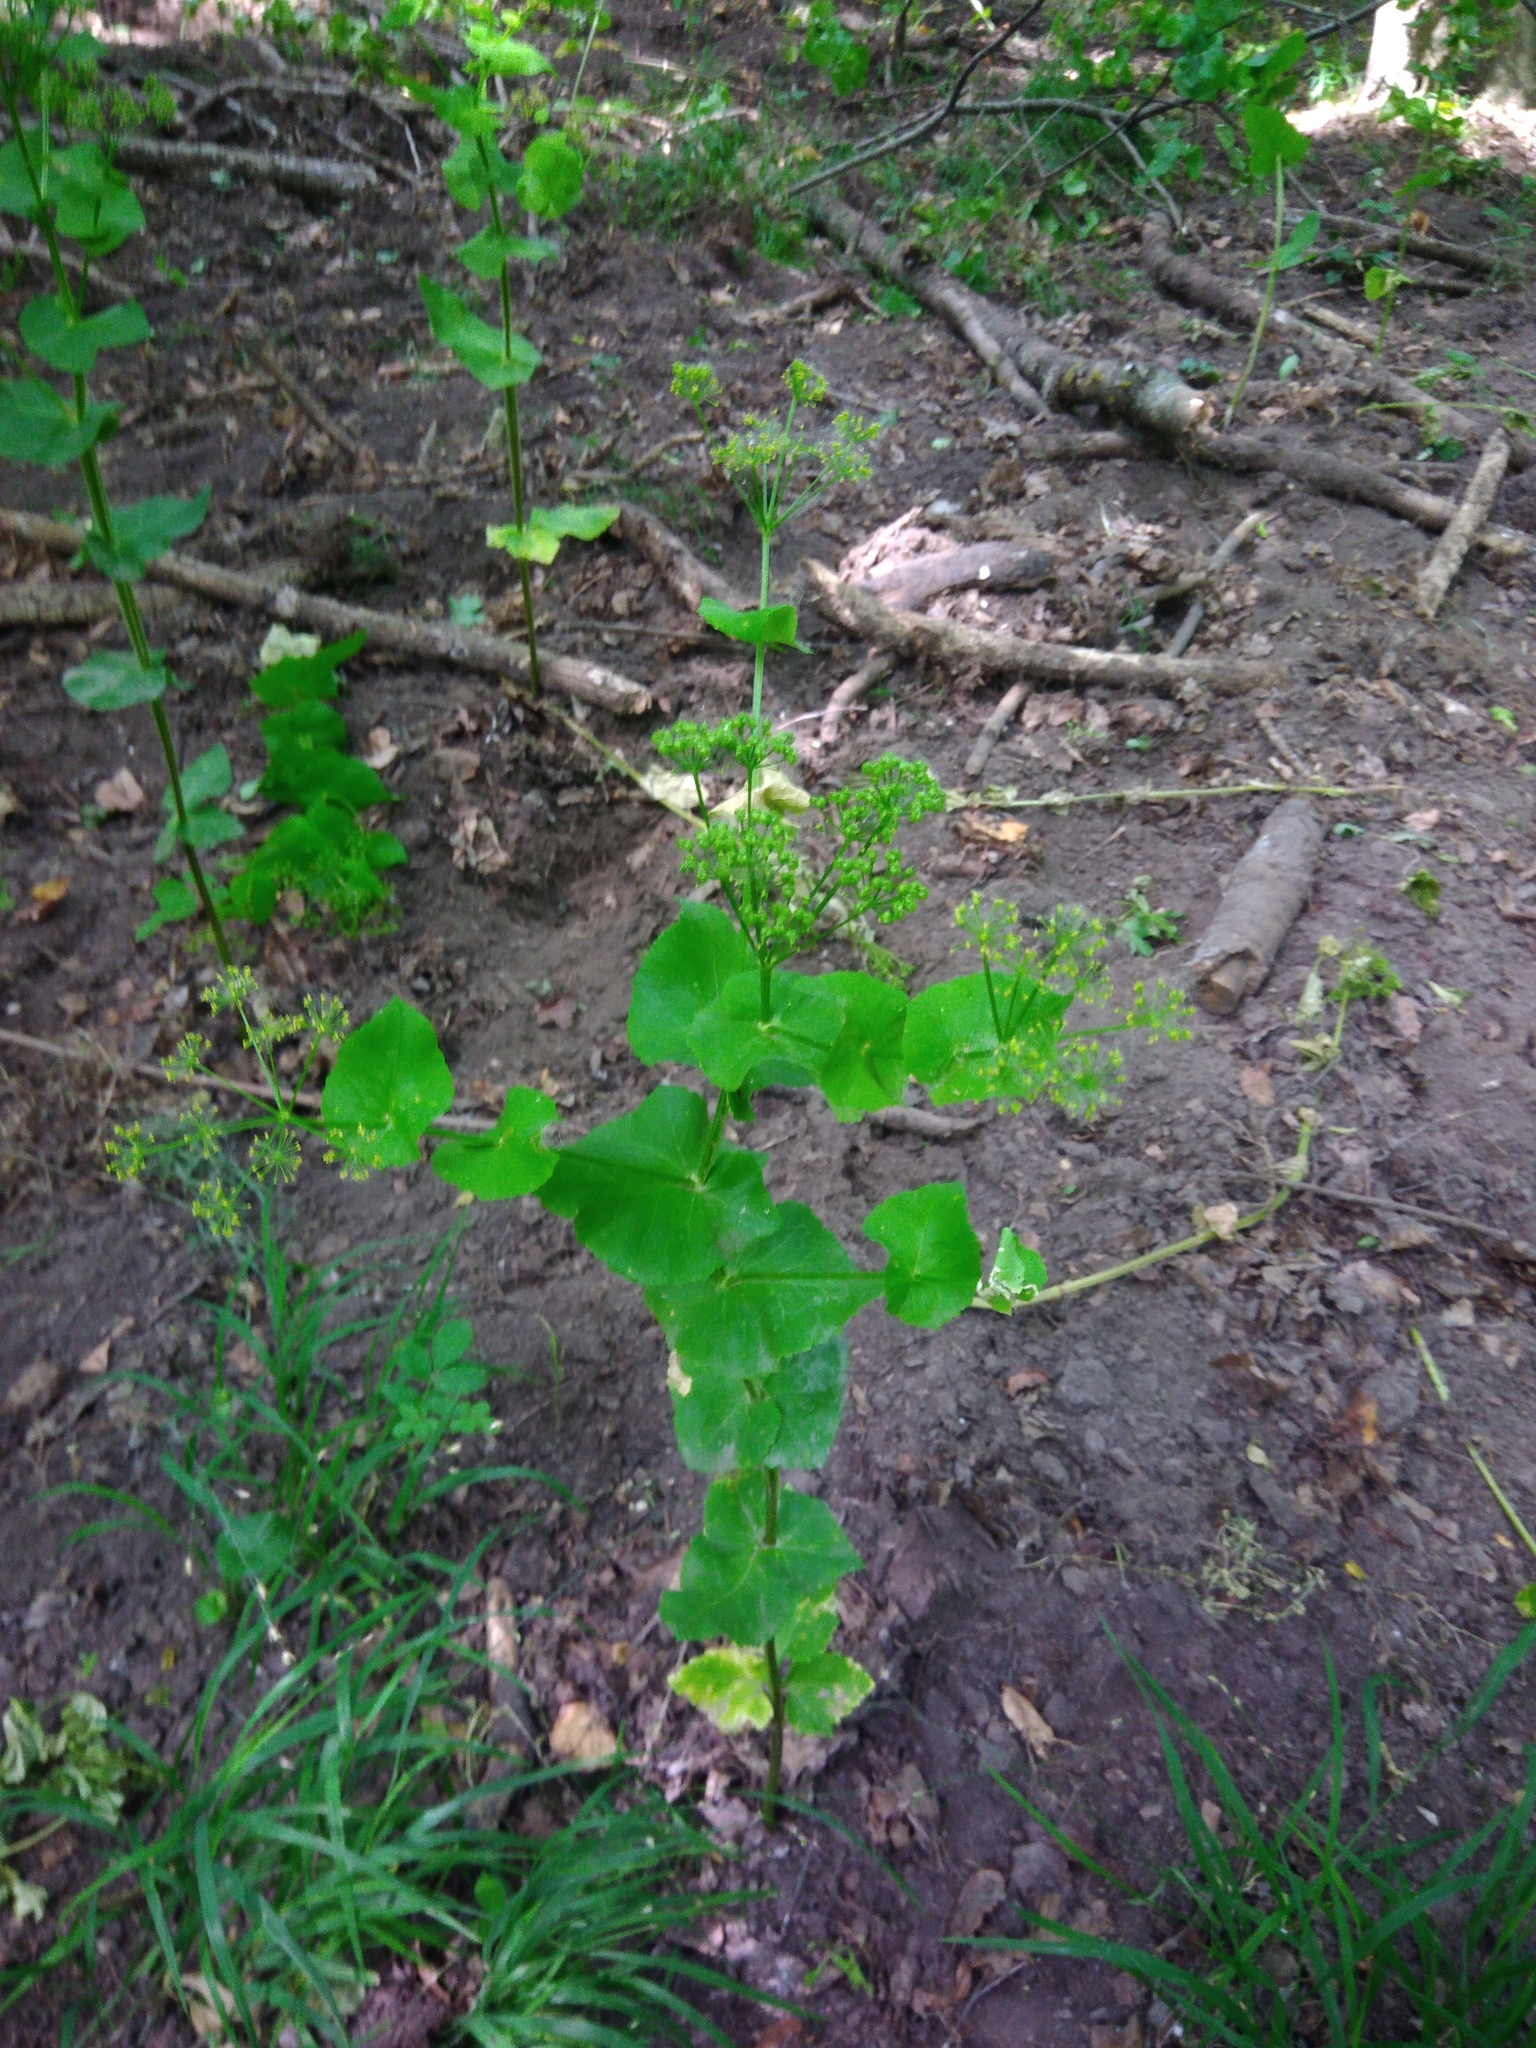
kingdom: Plantae
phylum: Tracheophyta
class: Magnoliopsida
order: Apiales
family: Apiaceae
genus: Smyrnium
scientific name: Smyrnium perfoliatum
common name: Perfoliate alexanders
